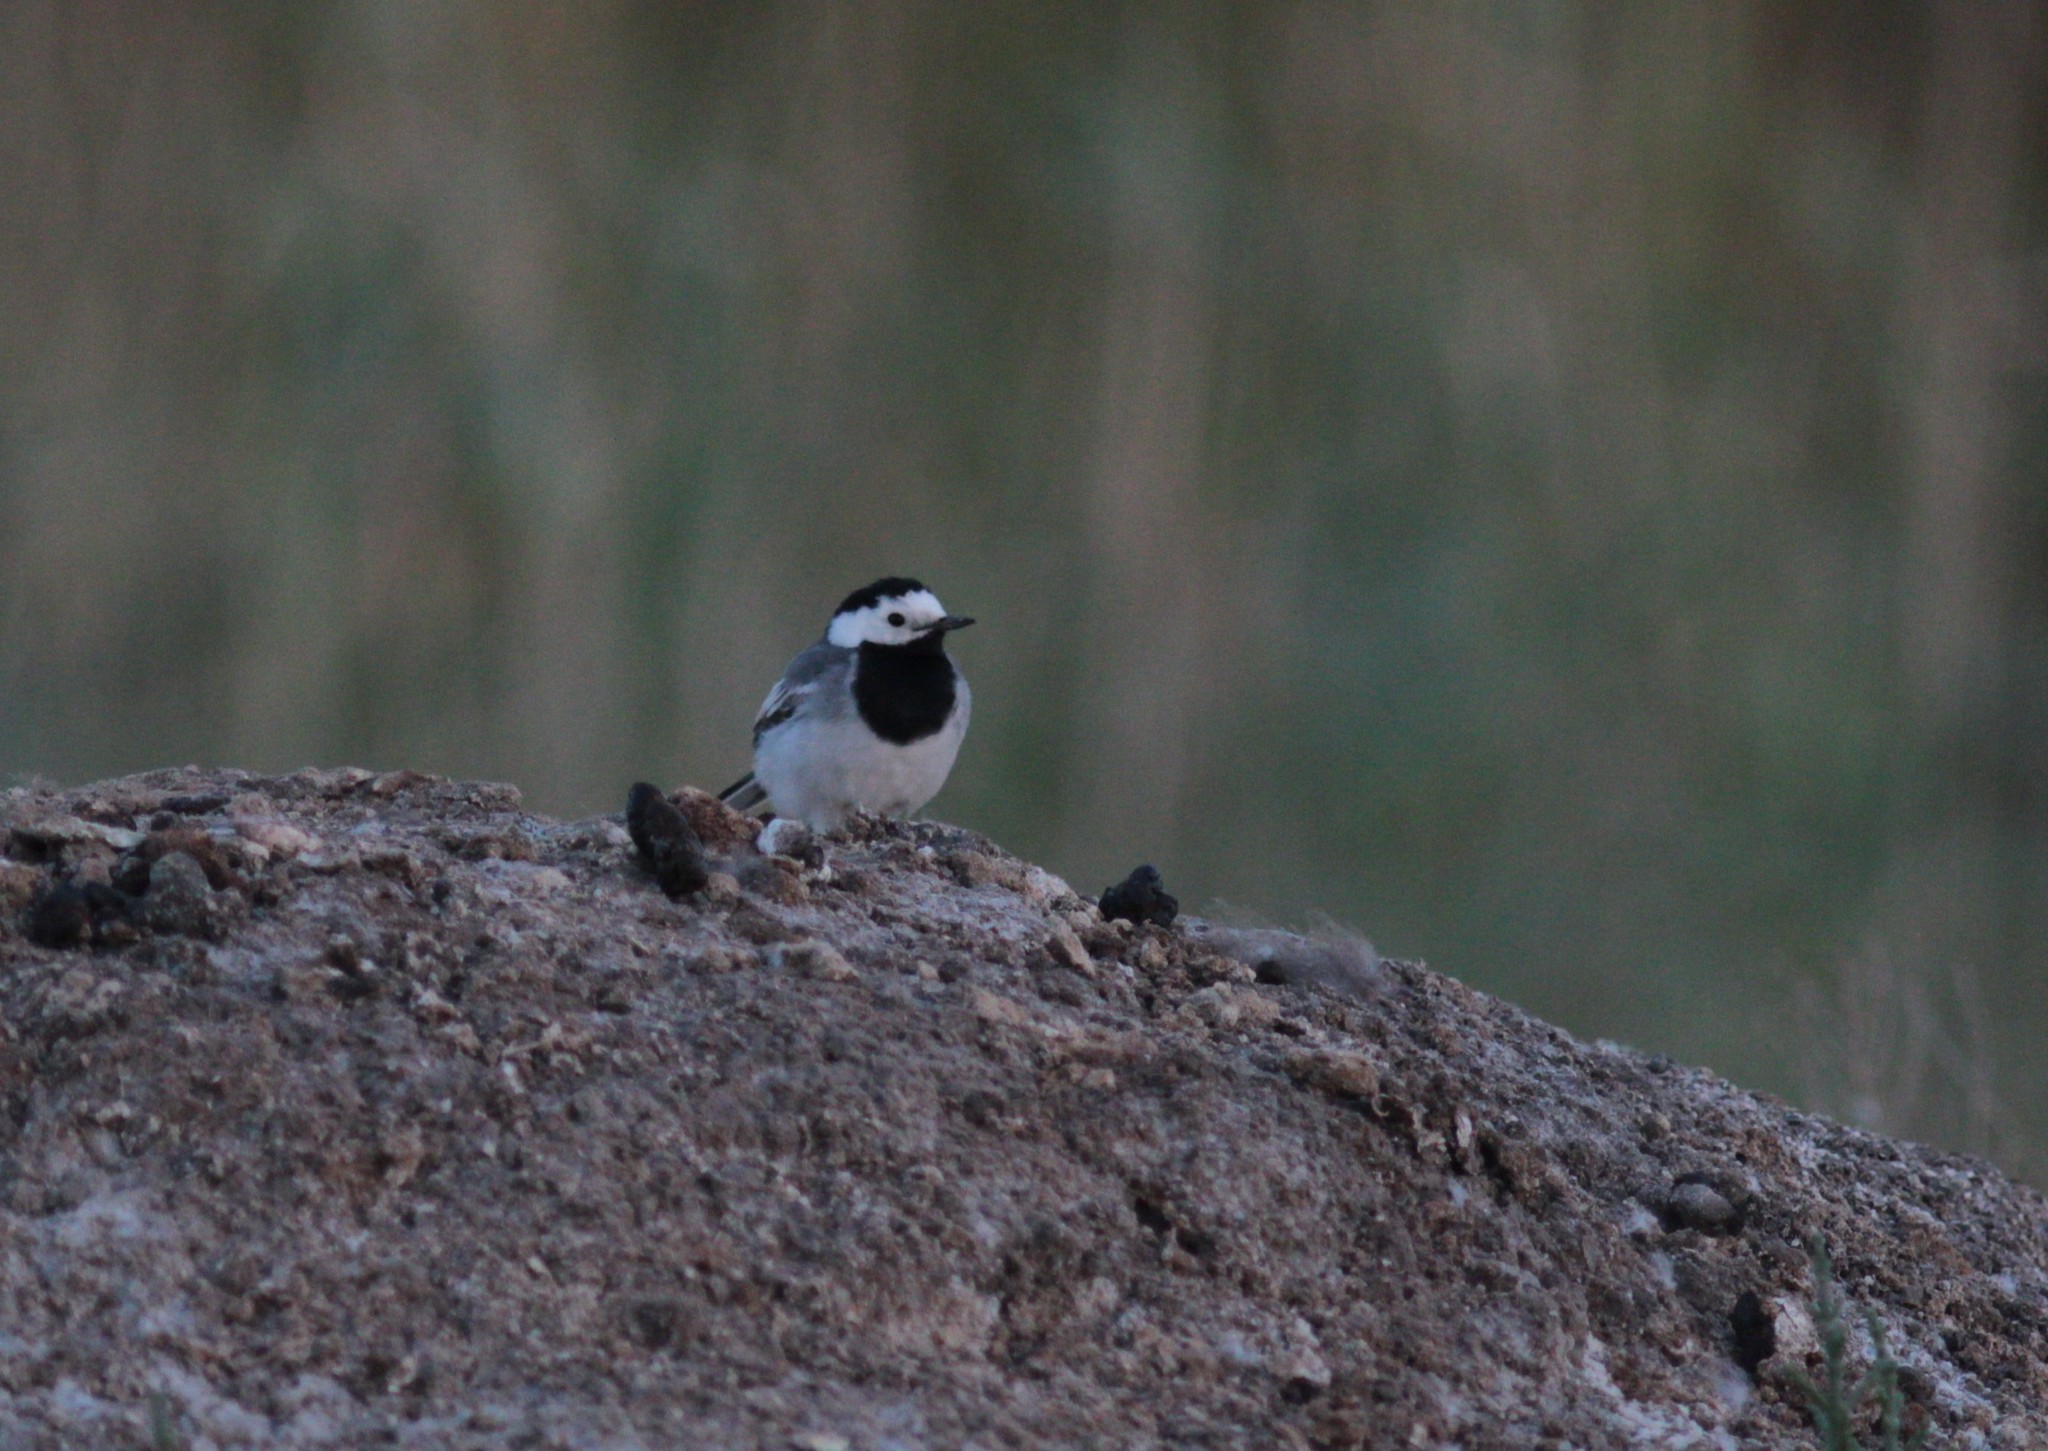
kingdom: Animalia
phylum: Chordata
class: Aves
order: Passeriformes
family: Motacillidae
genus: Motacilla
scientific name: Motacilla alba
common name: White wagtail
